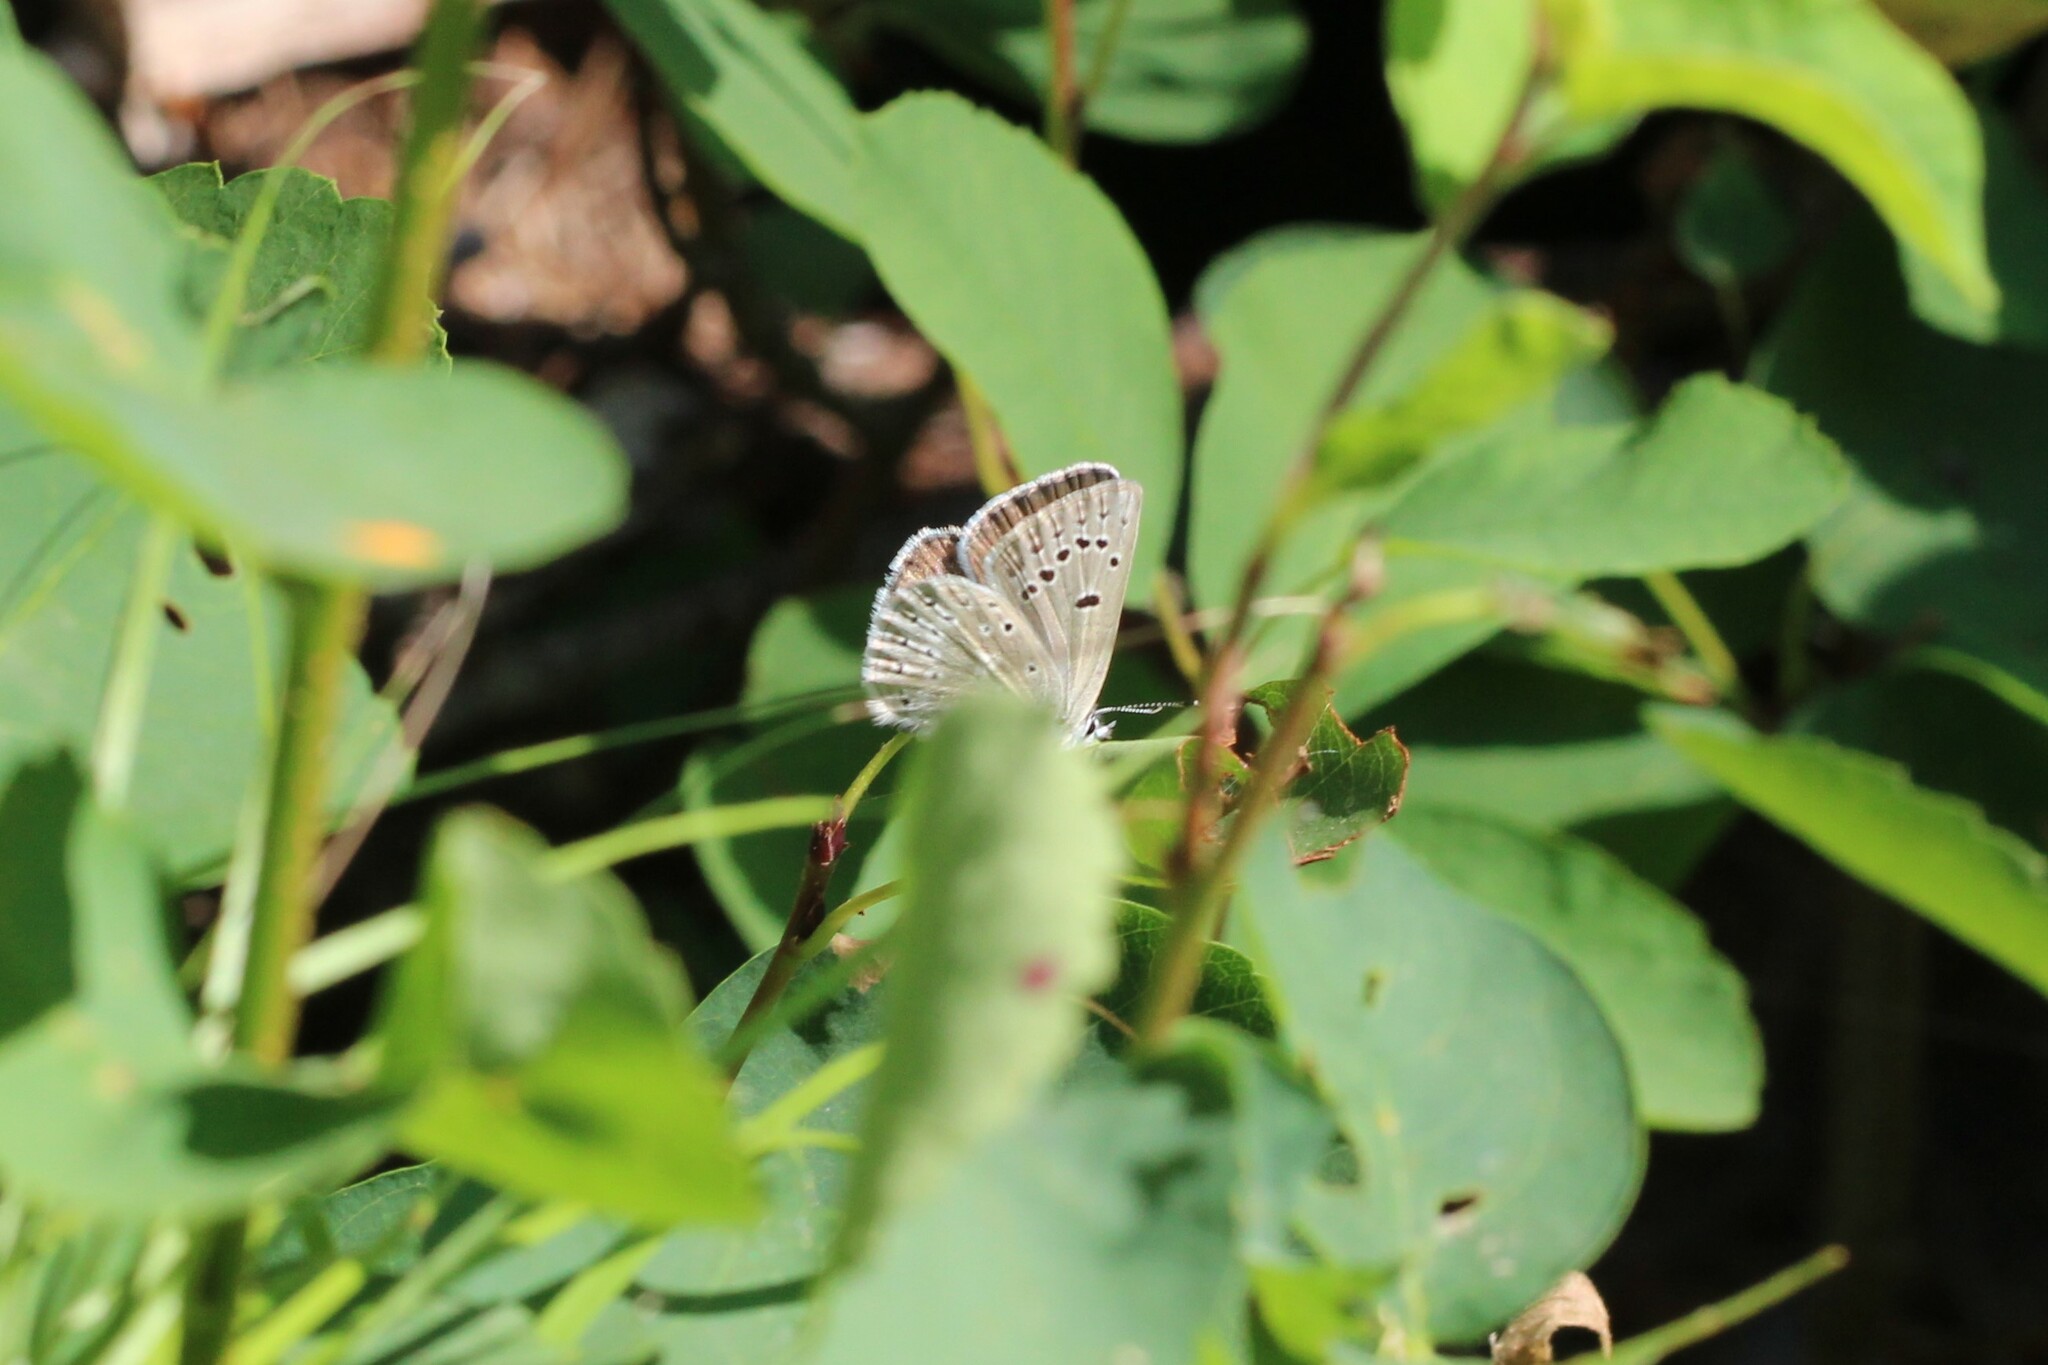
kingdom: Animalia
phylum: Arthropoda
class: Insecta
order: Lepidoptera
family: Lycaenidae
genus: Icaricia
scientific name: Icaricia icarioides
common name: Boisduval's blue
